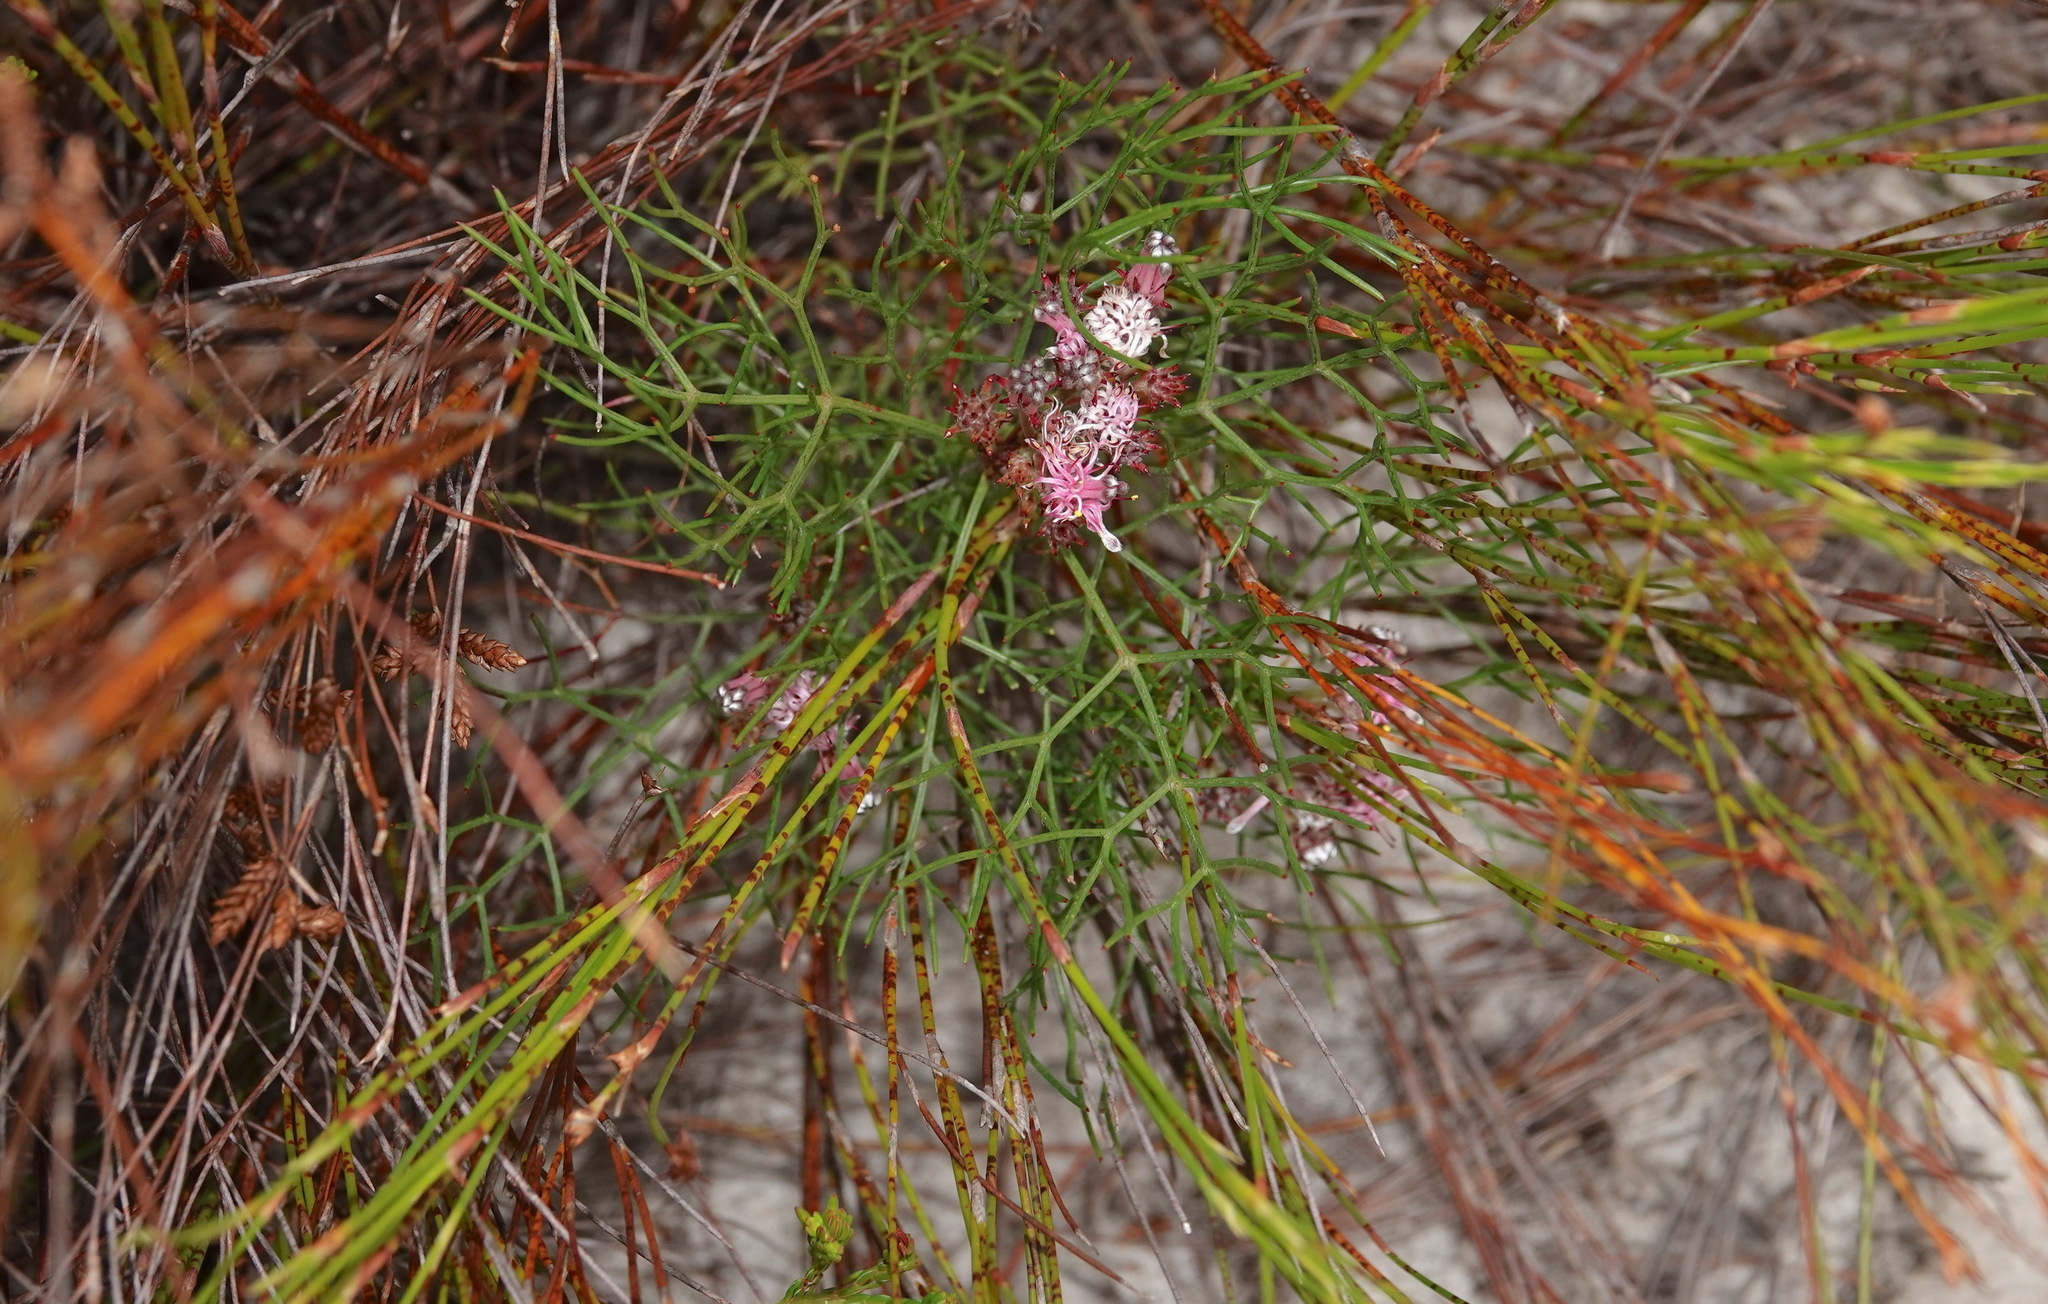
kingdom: Plantae
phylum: Tracheophyta
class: Magnoliopsida
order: Proteales
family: Proteaceae
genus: Serruria
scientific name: Serruria fasciflora
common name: Common pin spiderhead
